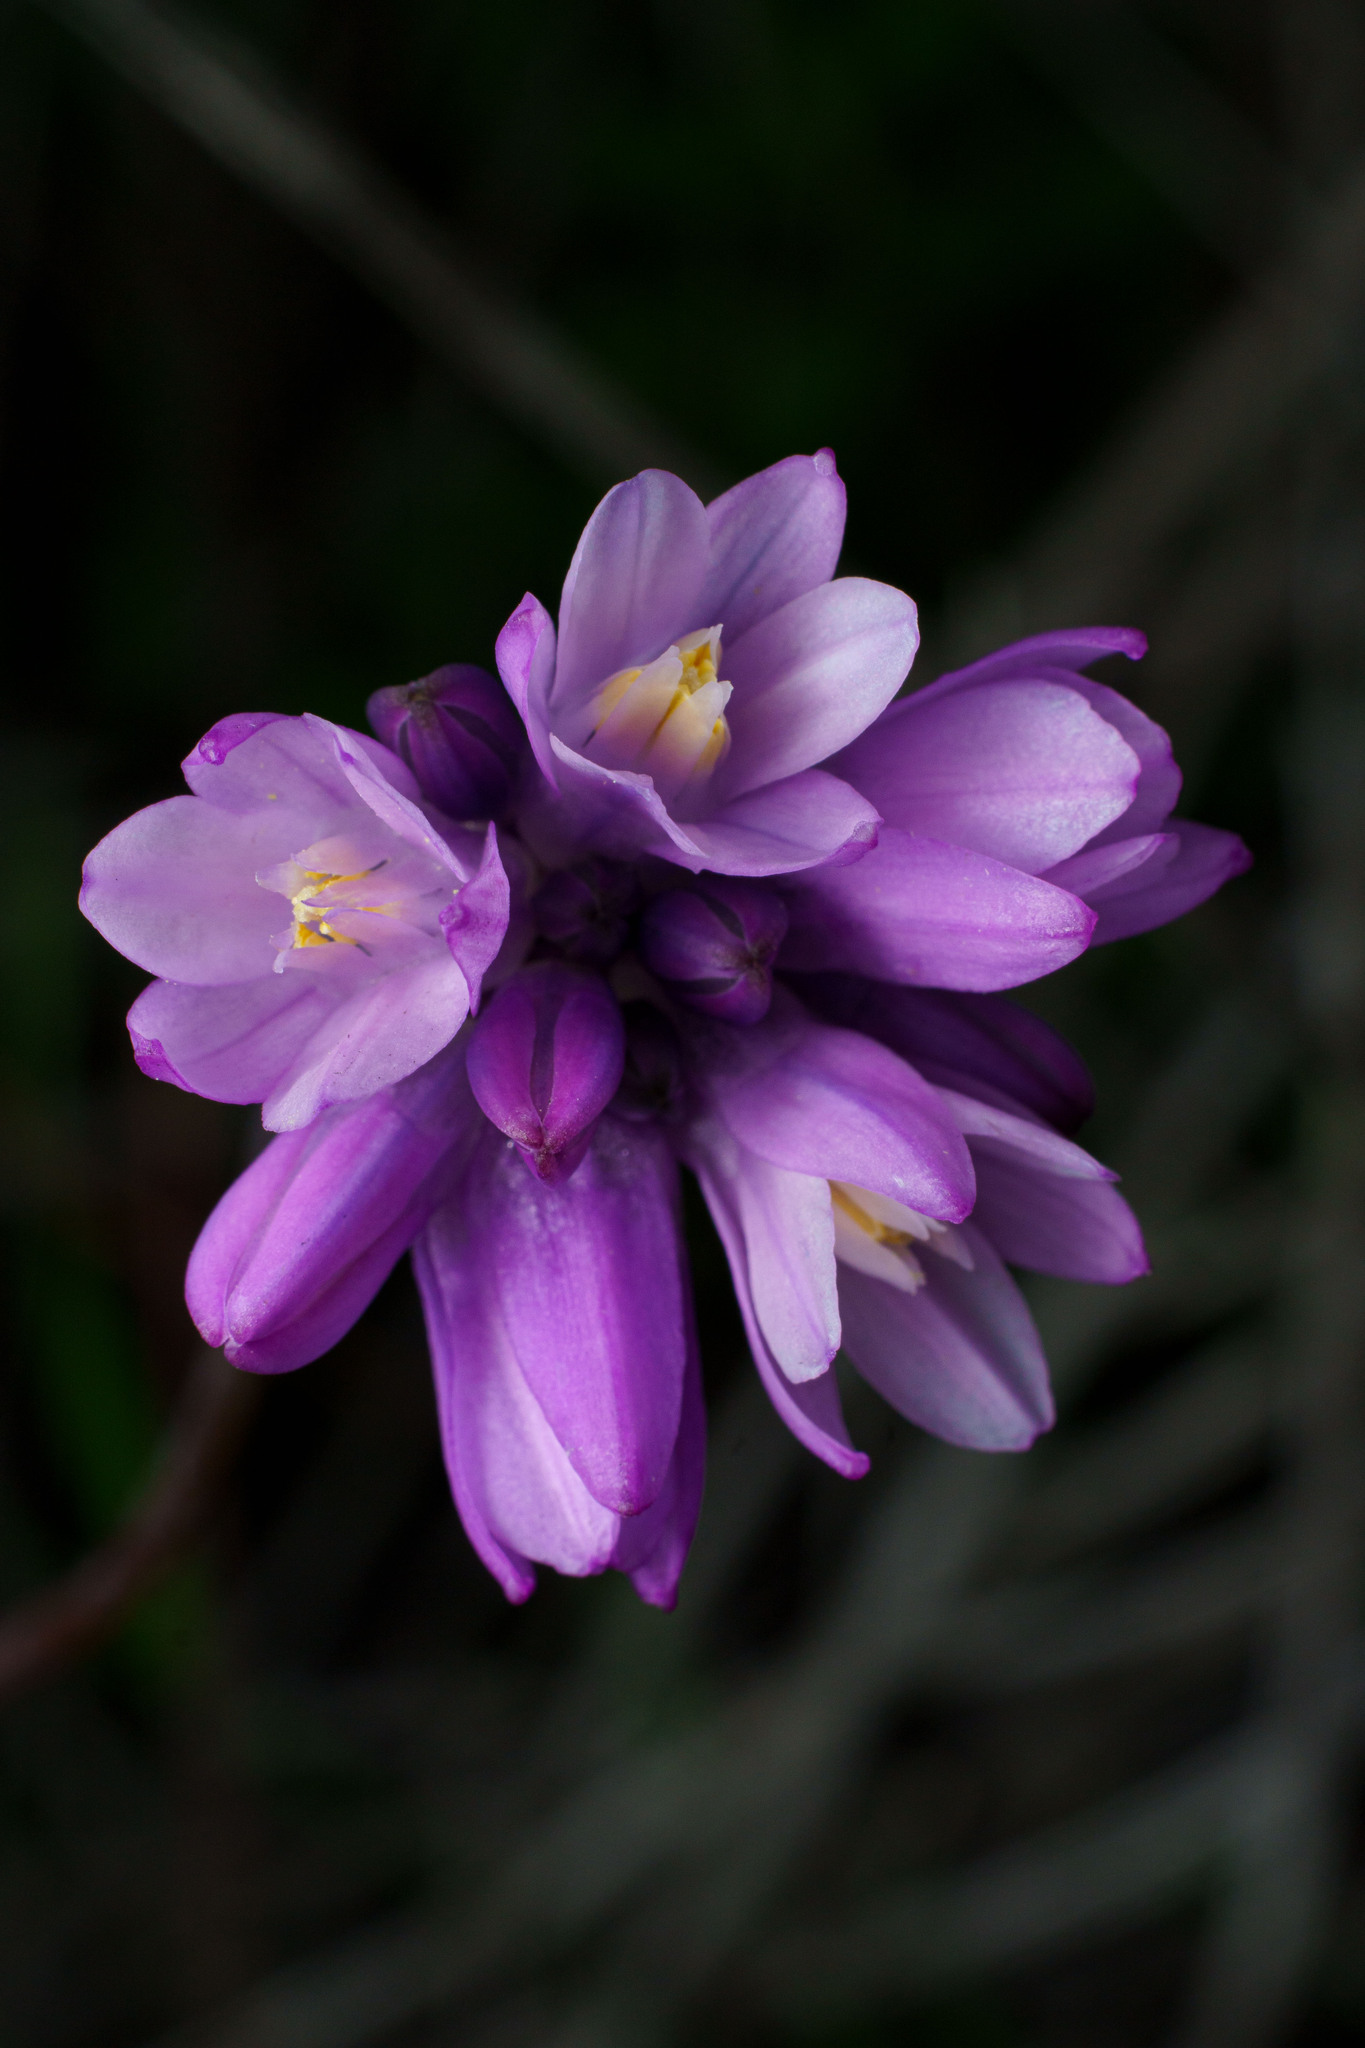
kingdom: Plantae
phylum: Tracheophyta
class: Liliopsida
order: Asparagales
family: Asparagaceae
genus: Dipterostemon
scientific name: Dipterostemon capitatus
